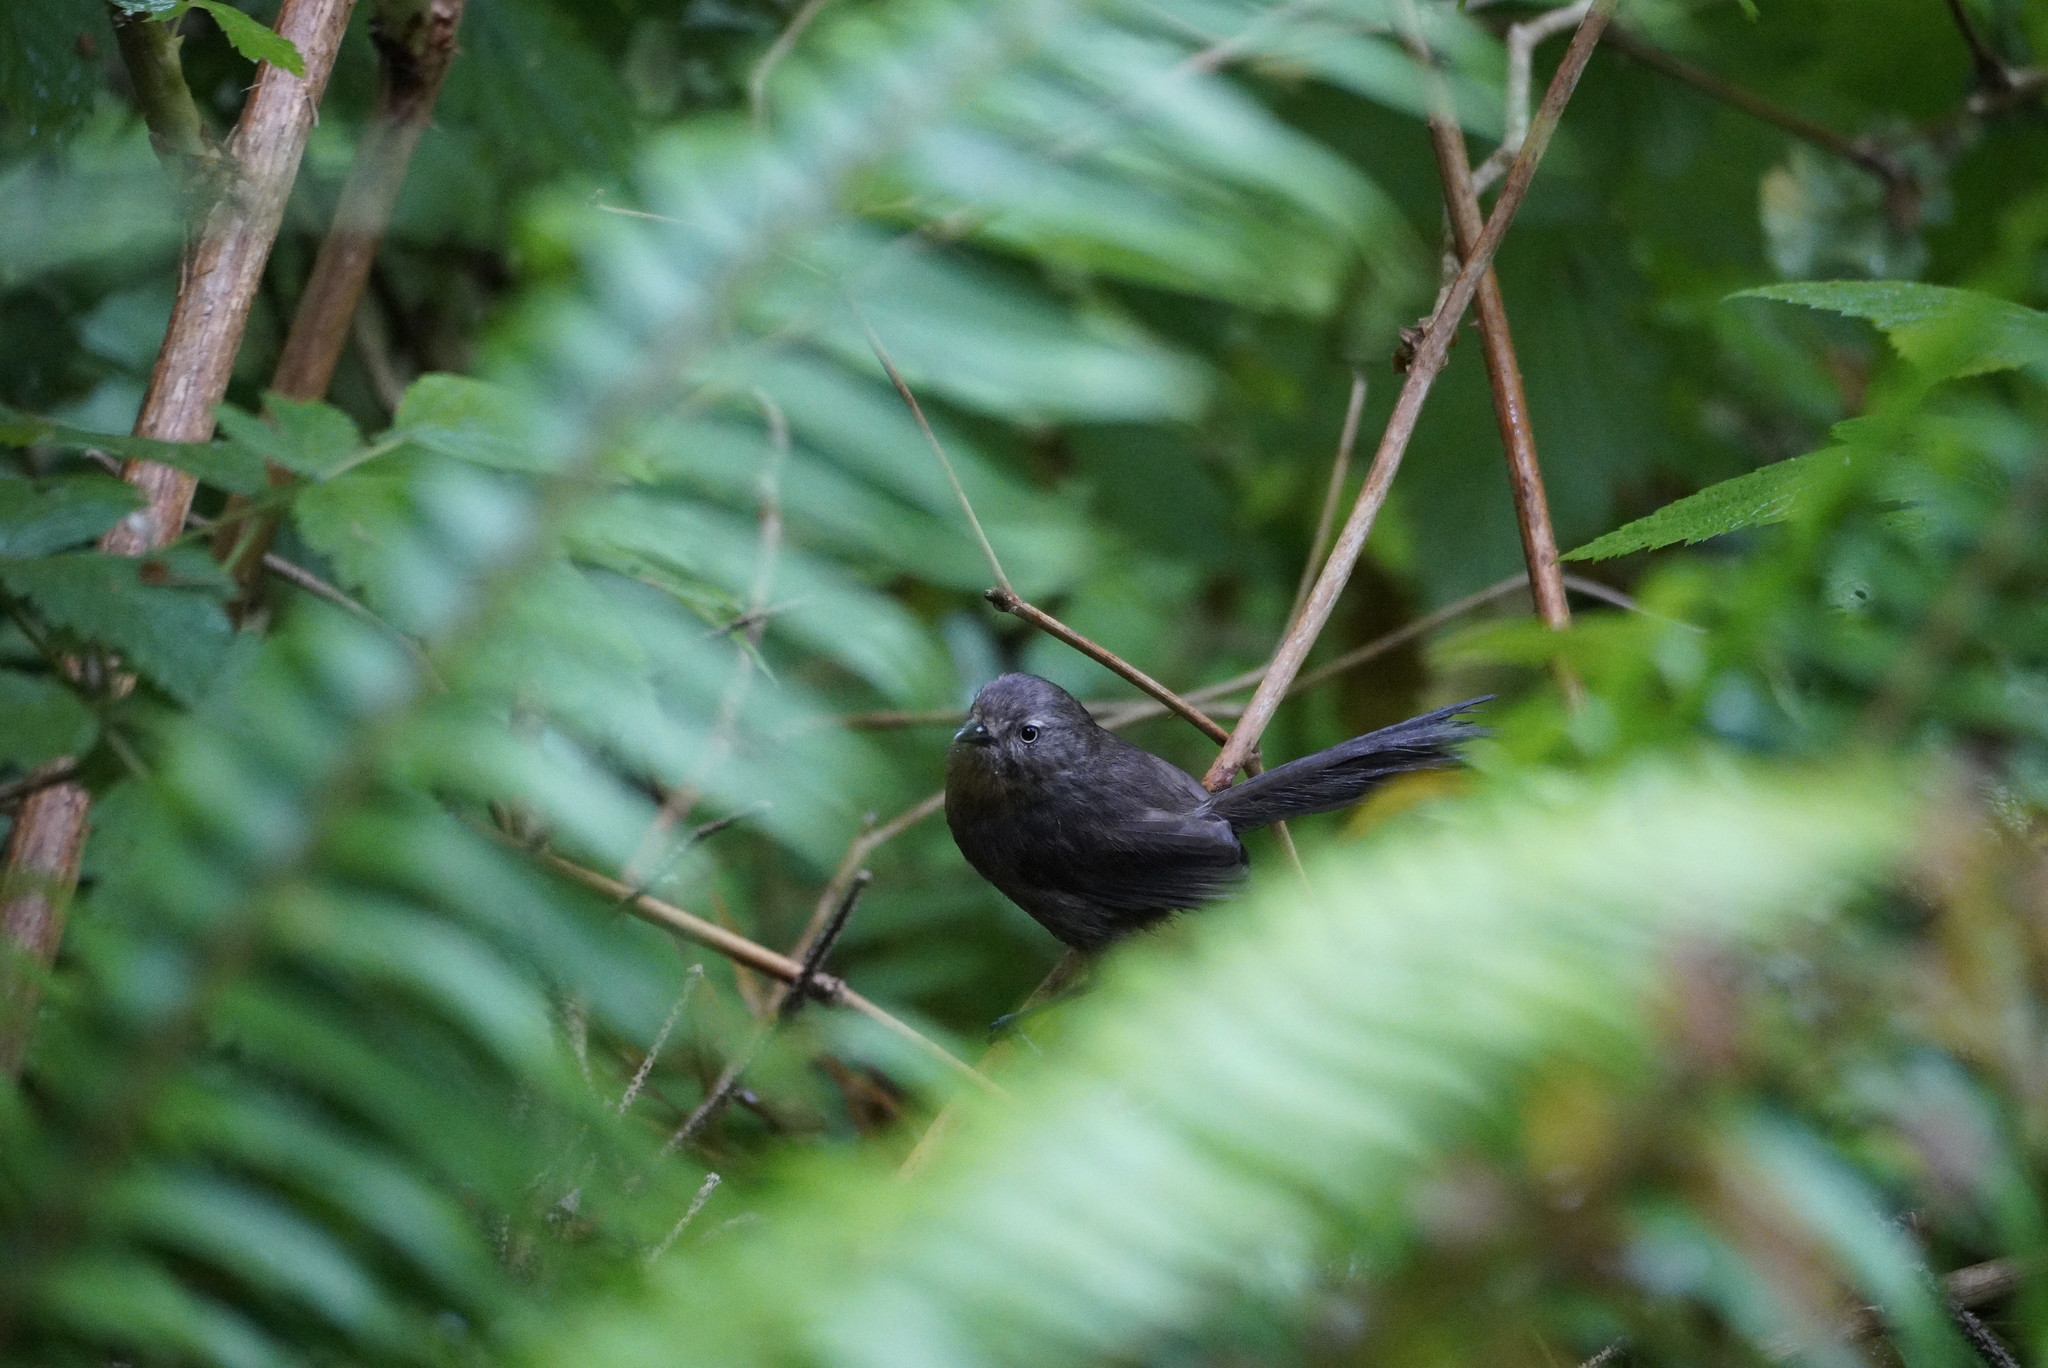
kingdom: Animalia
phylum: Chordata
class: Aves
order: Passeriformes
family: Sylviidae
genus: Chamaea
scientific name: Chamaea fasciata
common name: Wrentit
